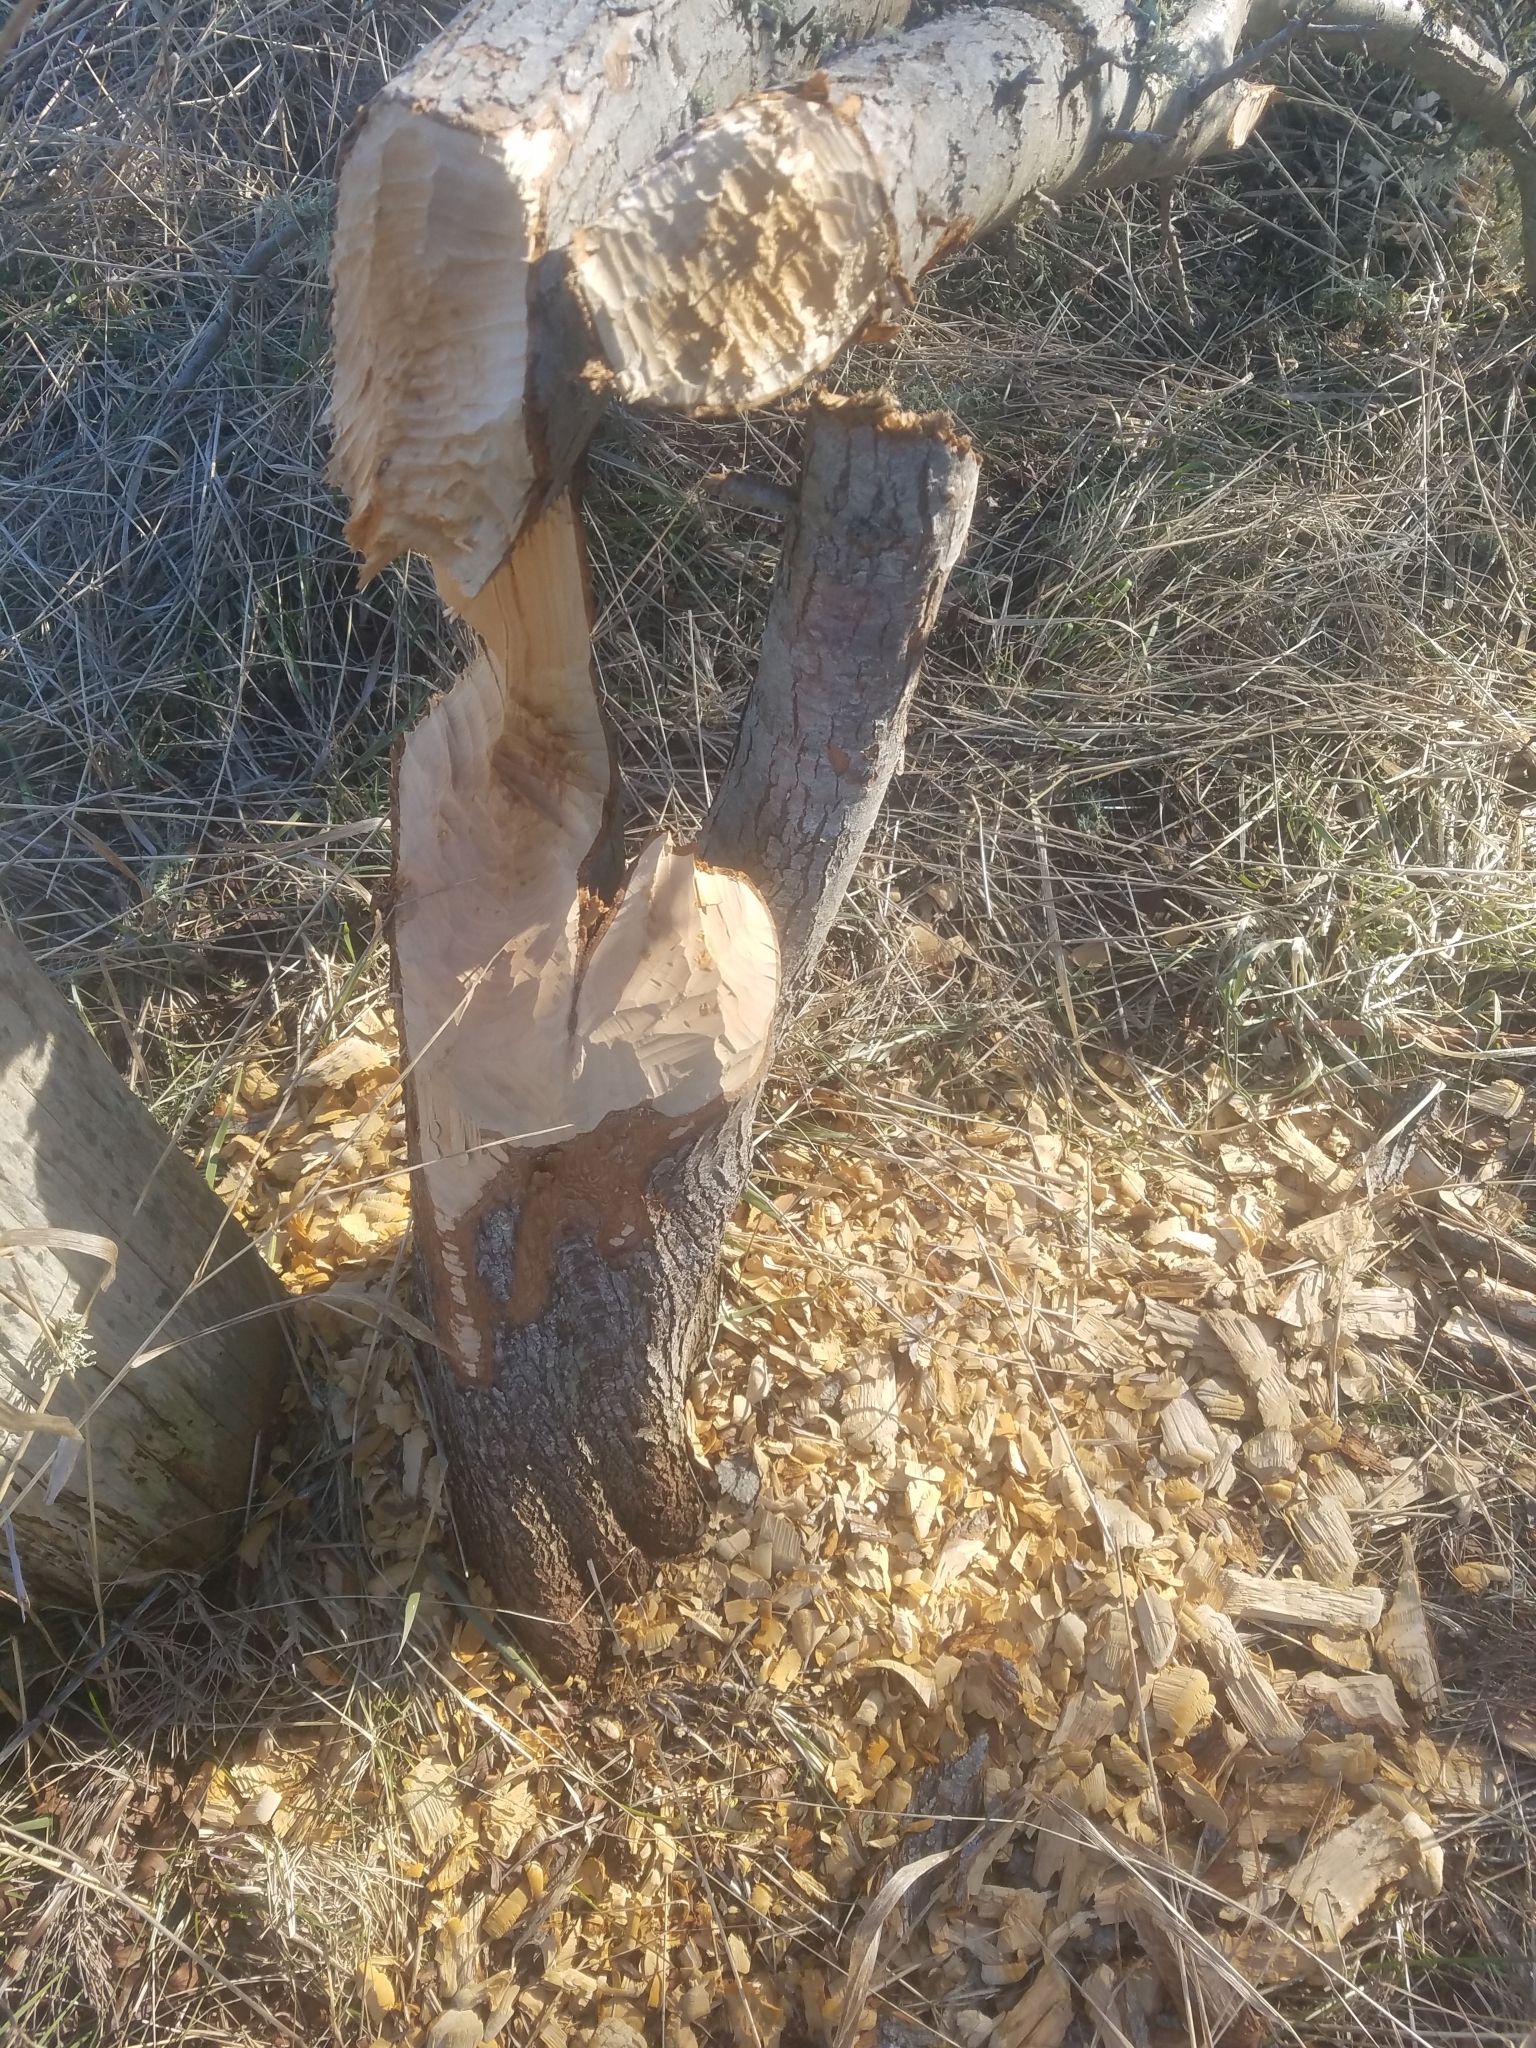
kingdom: Animalia
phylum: Chordata
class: Mammalia
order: Rodentia
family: Castoridae
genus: Castor
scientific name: Castor canadensis
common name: American beaver
